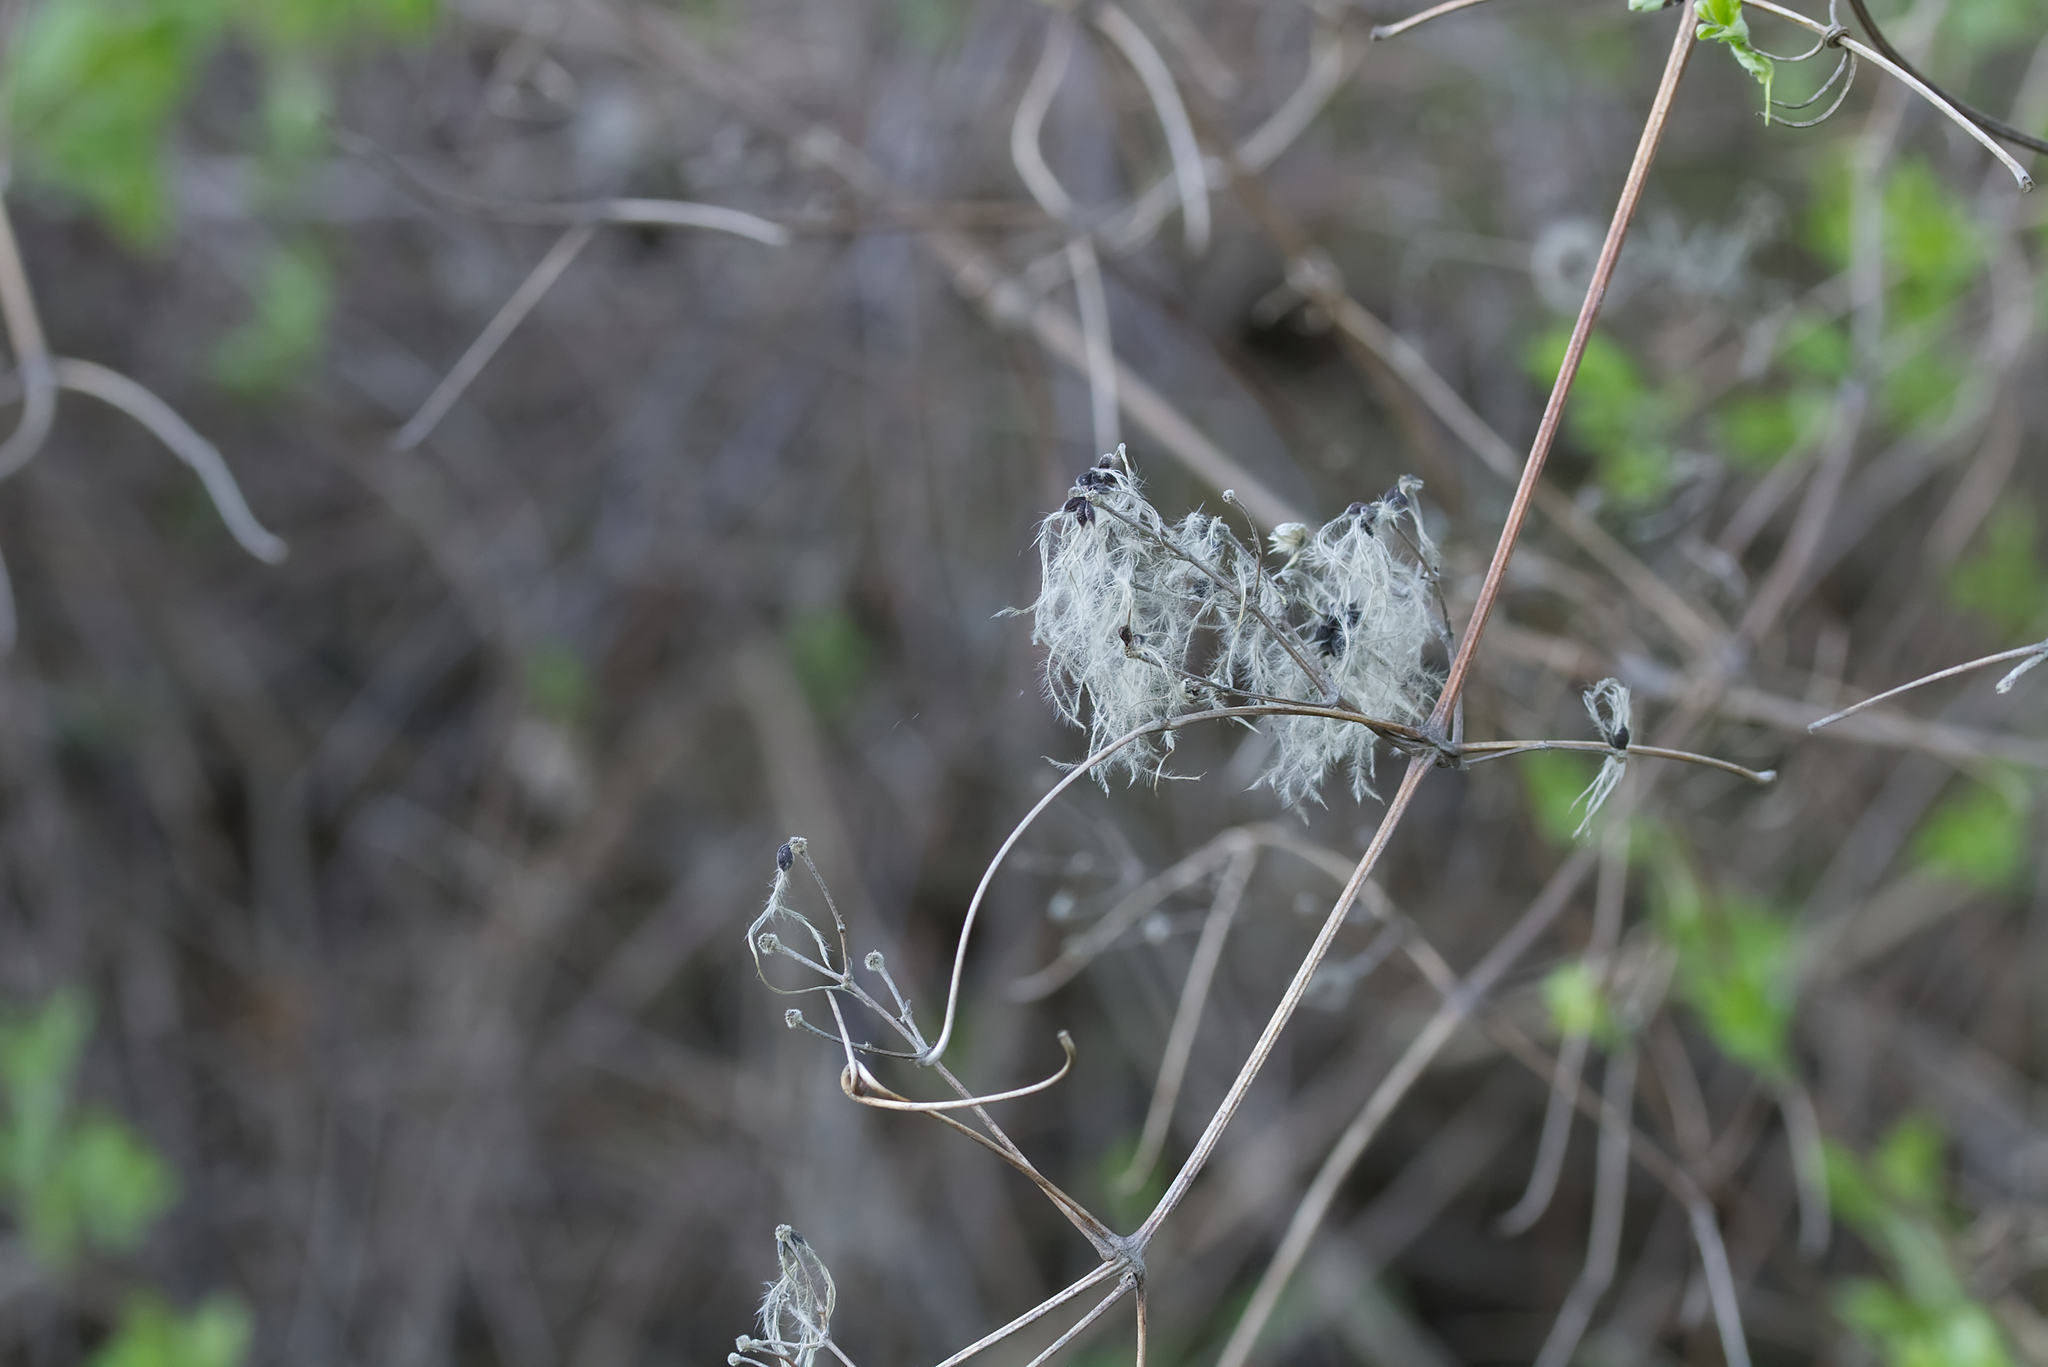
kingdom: Plantae
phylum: Tracheophyta
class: Magnoliopsida
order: Ranunculales
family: Ranunculaceae
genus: Clematis
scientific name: Clematis vitalba
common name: Evergreen clematis
